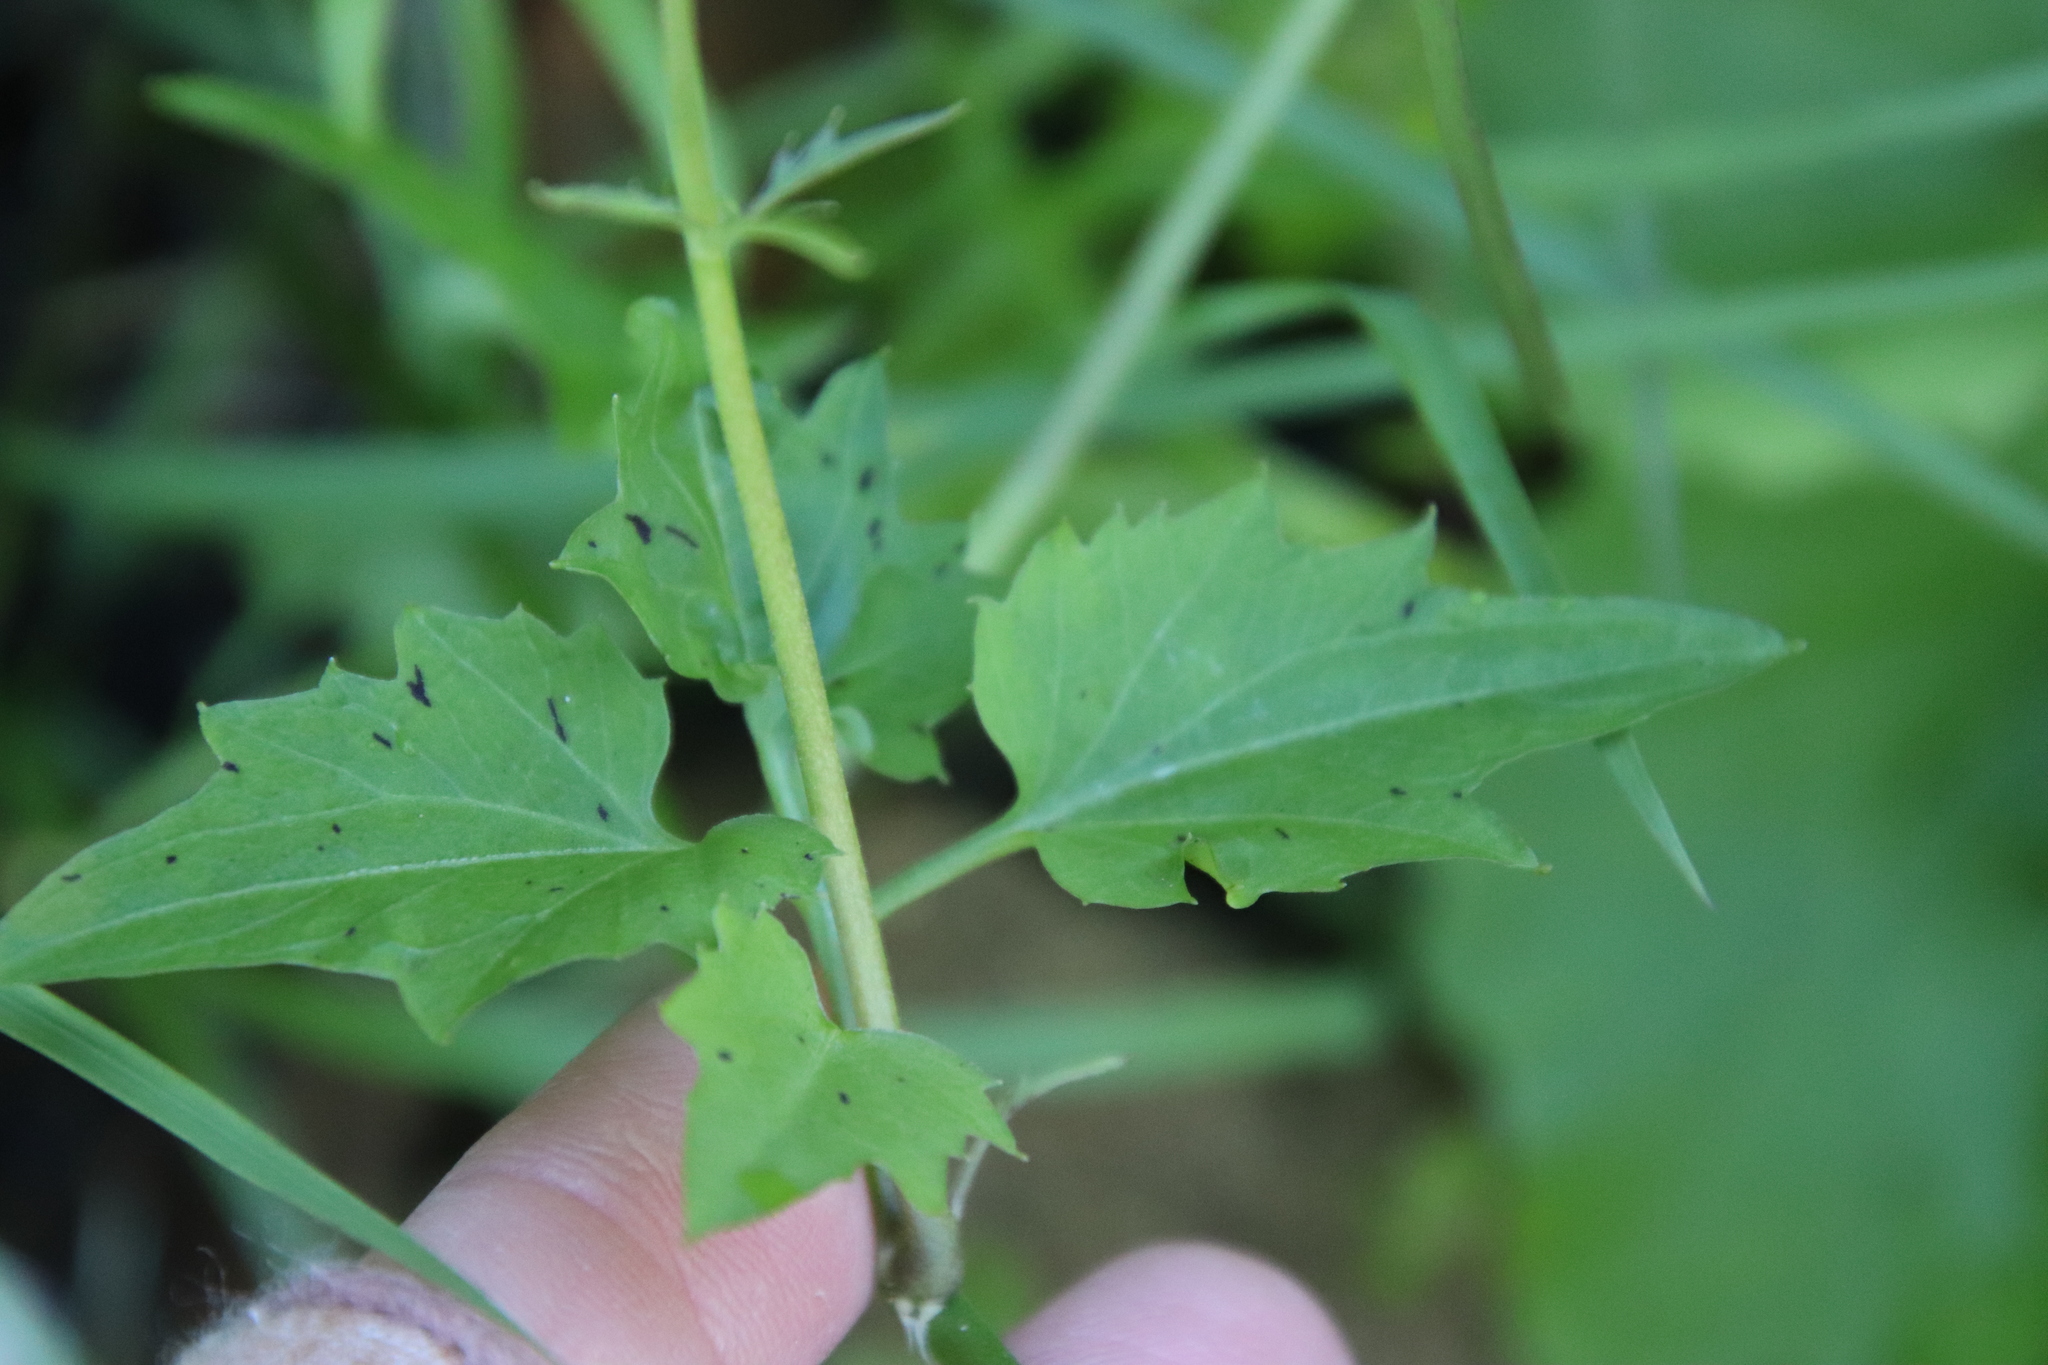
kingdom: Plantae
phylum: Tracheophyta
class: Magnoliopsida
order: Brassicales
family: Brassicaceae
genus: Cardamine
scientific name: Cardamine californica
